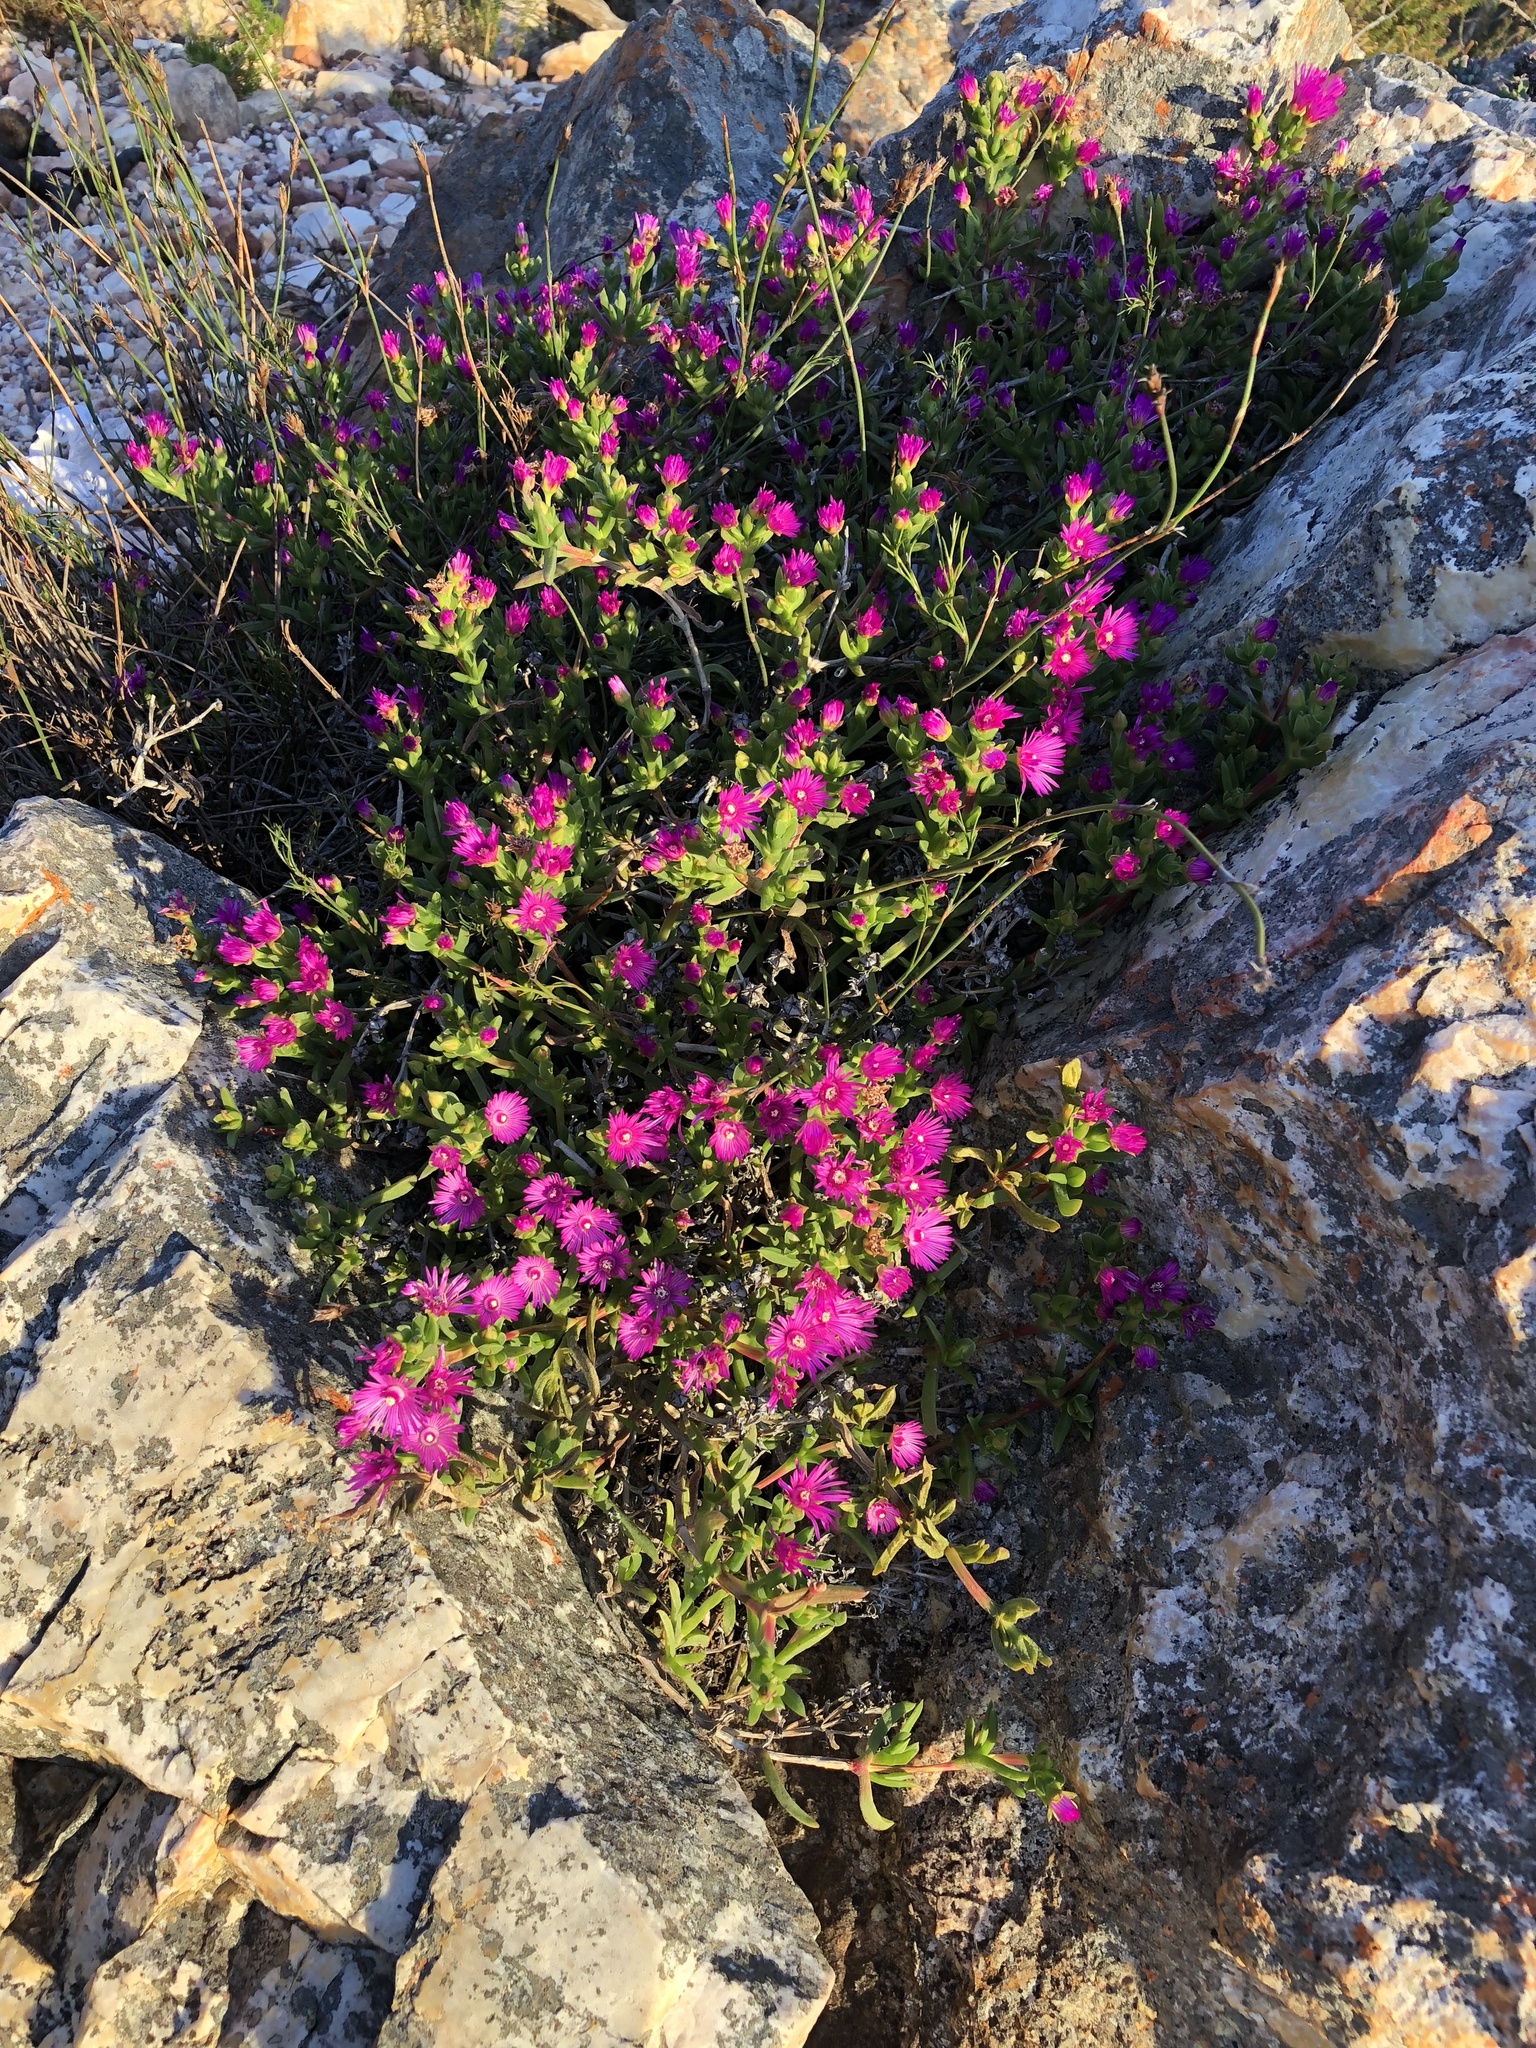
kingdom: Plantae
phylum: Tracheophyta
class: Magnoliopsida
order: Caryophyllales
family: Aizoaceae
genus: Carpobrotus
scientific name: Carpobrotus acinaciformis
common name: Sally-my-handsome
